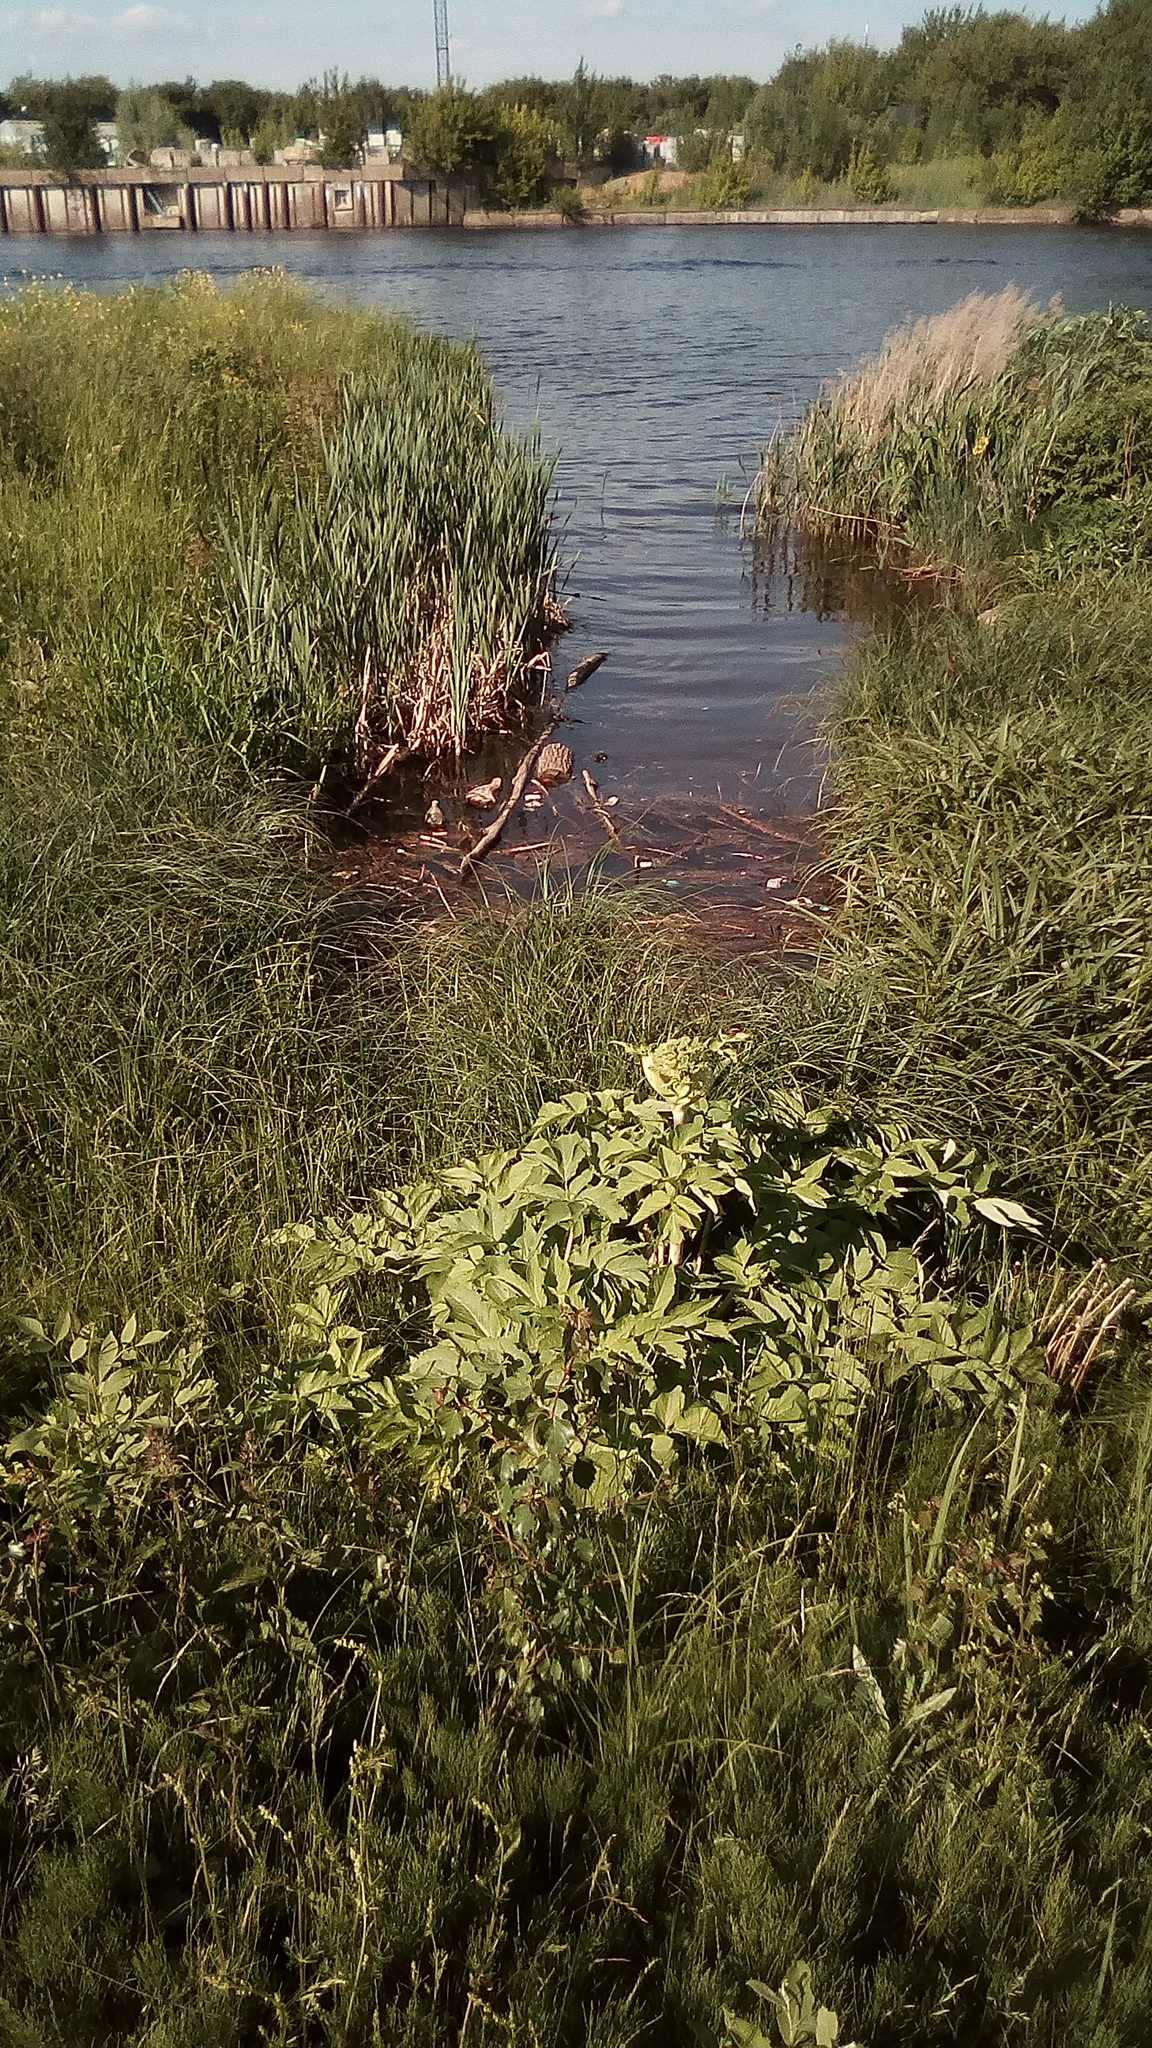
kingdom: Plantae
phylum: Tracheophyta
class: Magnoliopsida
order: Apiales
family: Apiaceae
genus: Angelica
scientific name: Angelica archangelica
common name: Garden angelica
